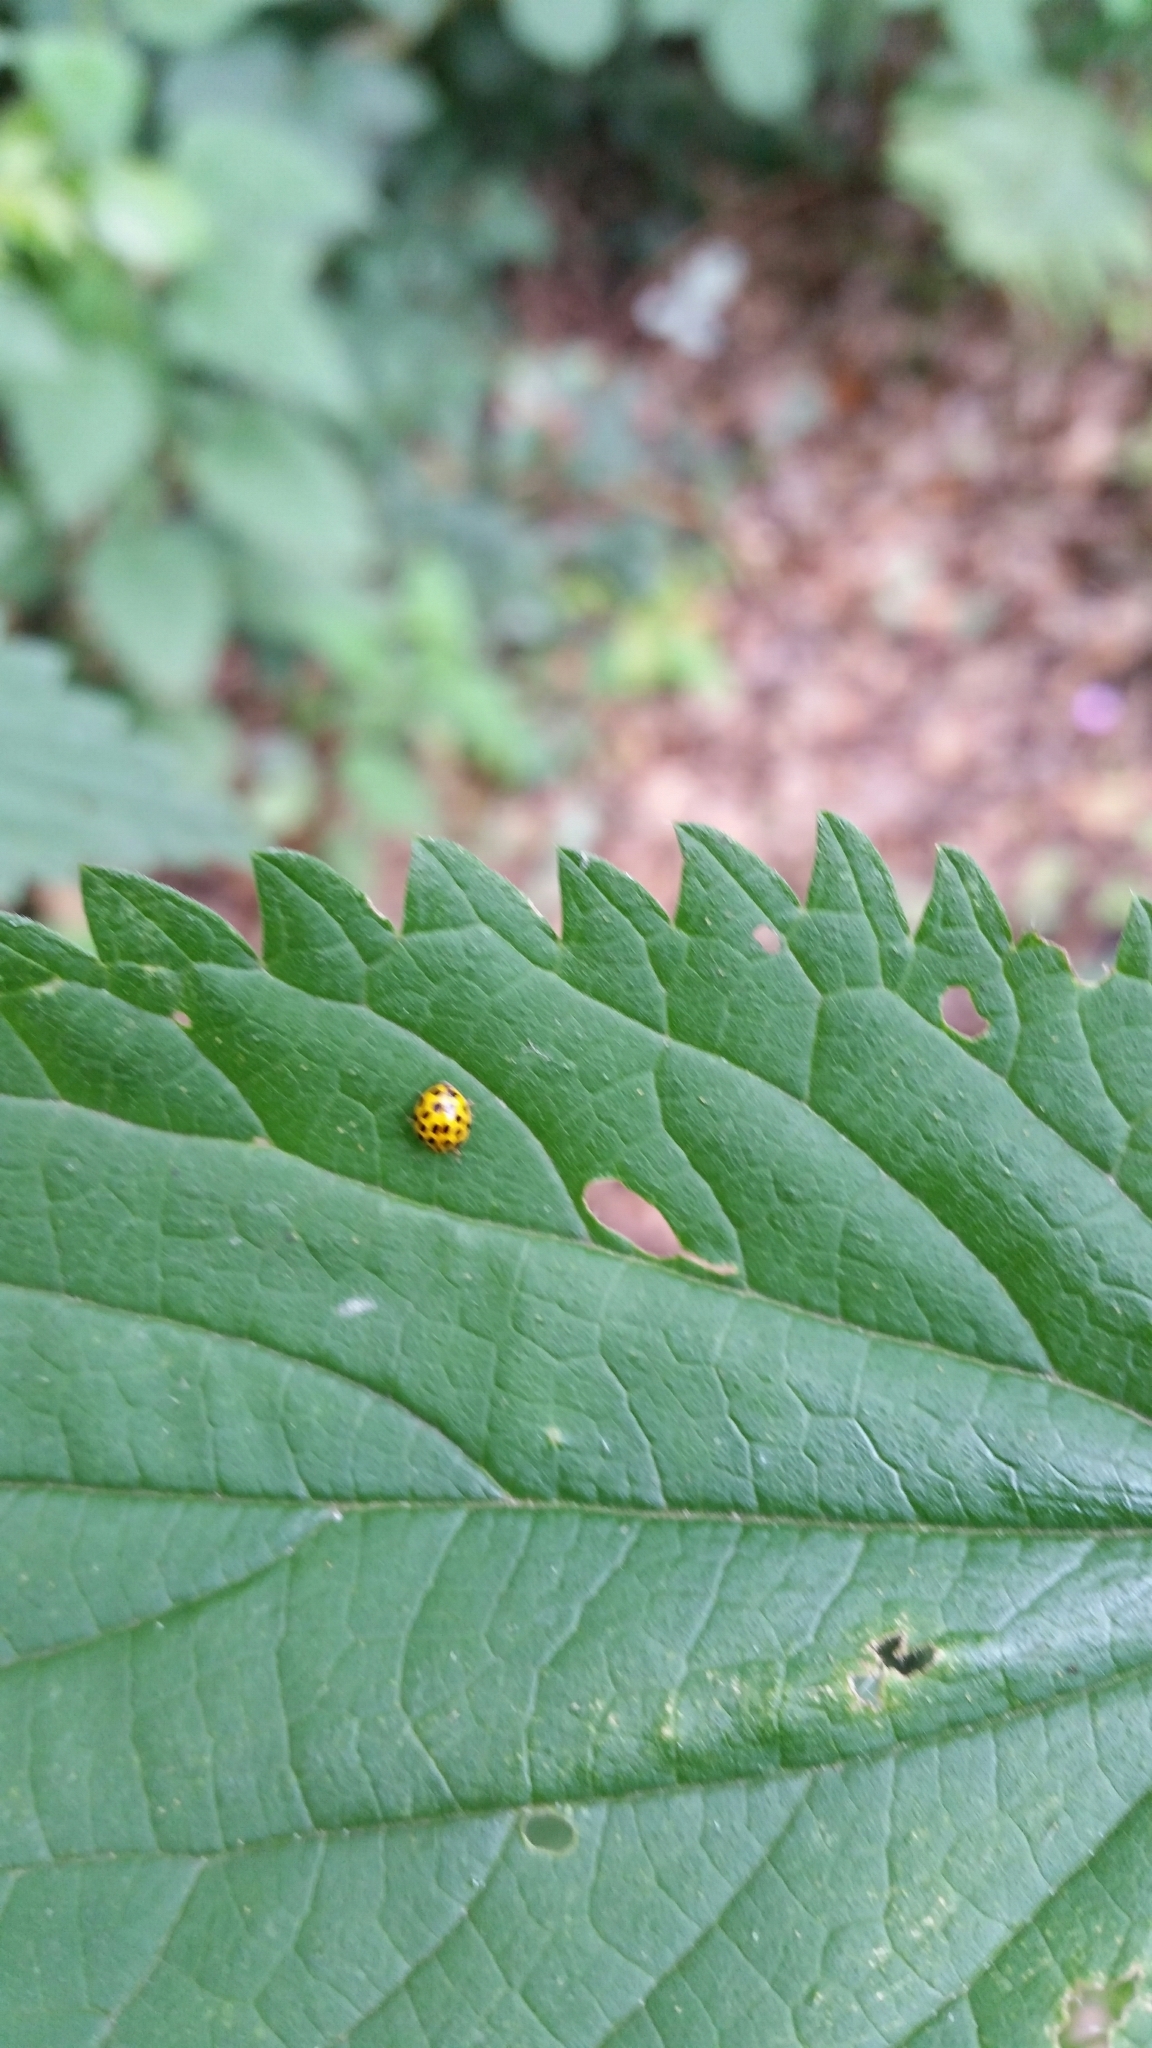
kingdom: Animalia
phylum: Arthropoda
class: Insecta
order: Coleoptera
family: Coccinellidae
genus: Psyllobora
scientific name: Psyllobora vigintiduopunctata
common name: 22-spot ladybird
